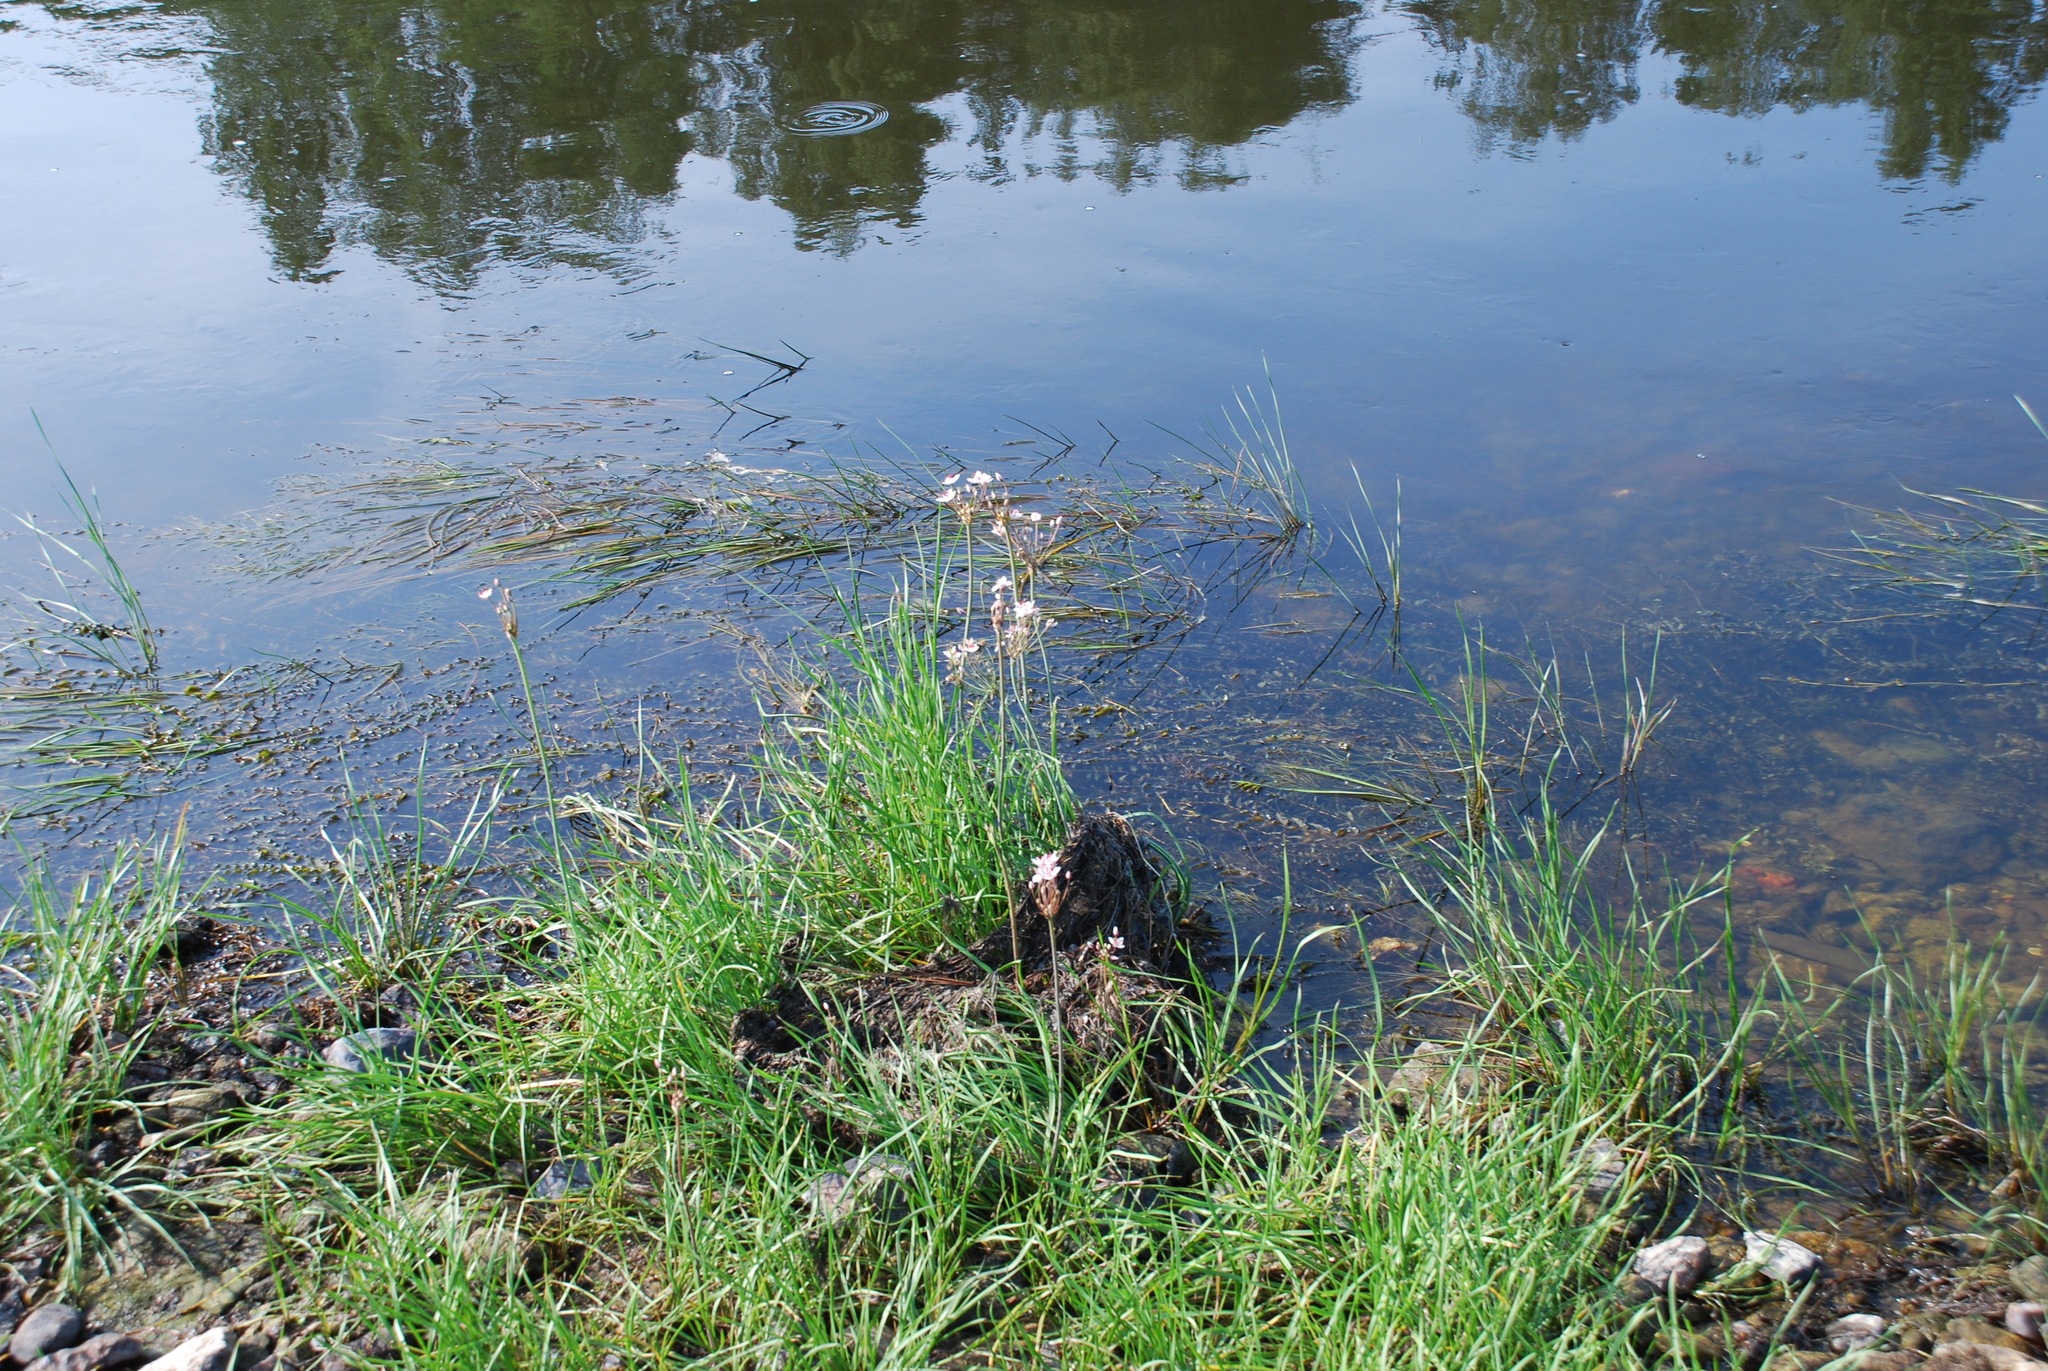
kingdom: Plantae
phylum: Tracheophyta
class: Liliopsida
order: Alismatales
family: Butomaceae
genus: Butomus
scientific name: Butomus umbellatus
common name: Flowering-rush
